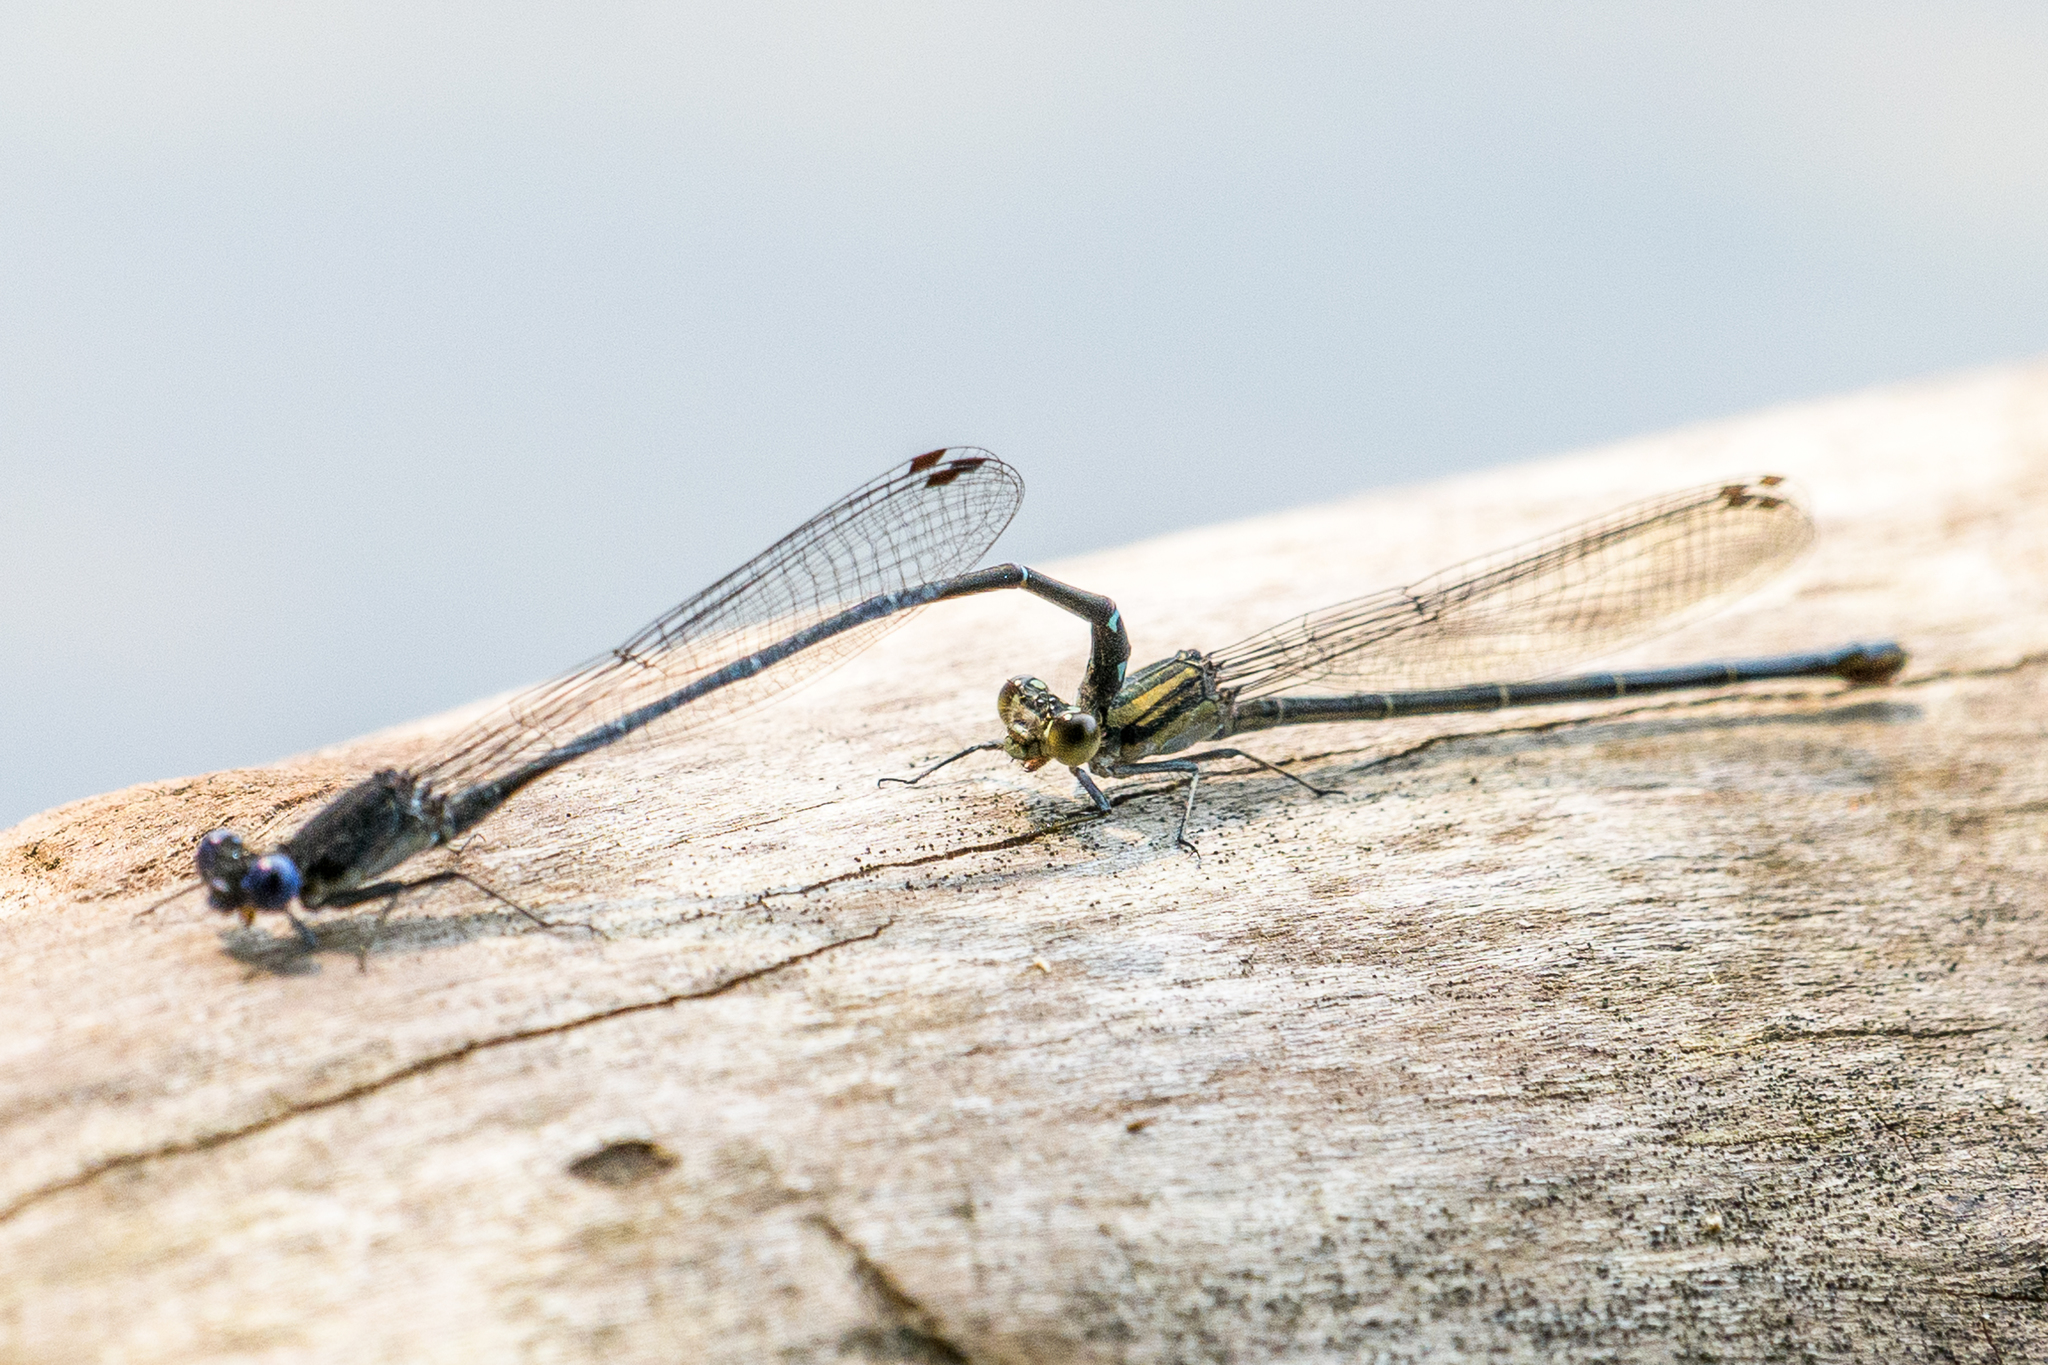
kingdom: Animalia
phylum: Arthropoda
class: Insecta
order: Odonata
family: Coenagrionidae
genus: Argia
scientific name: Argia translata
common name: Dusky dancer
